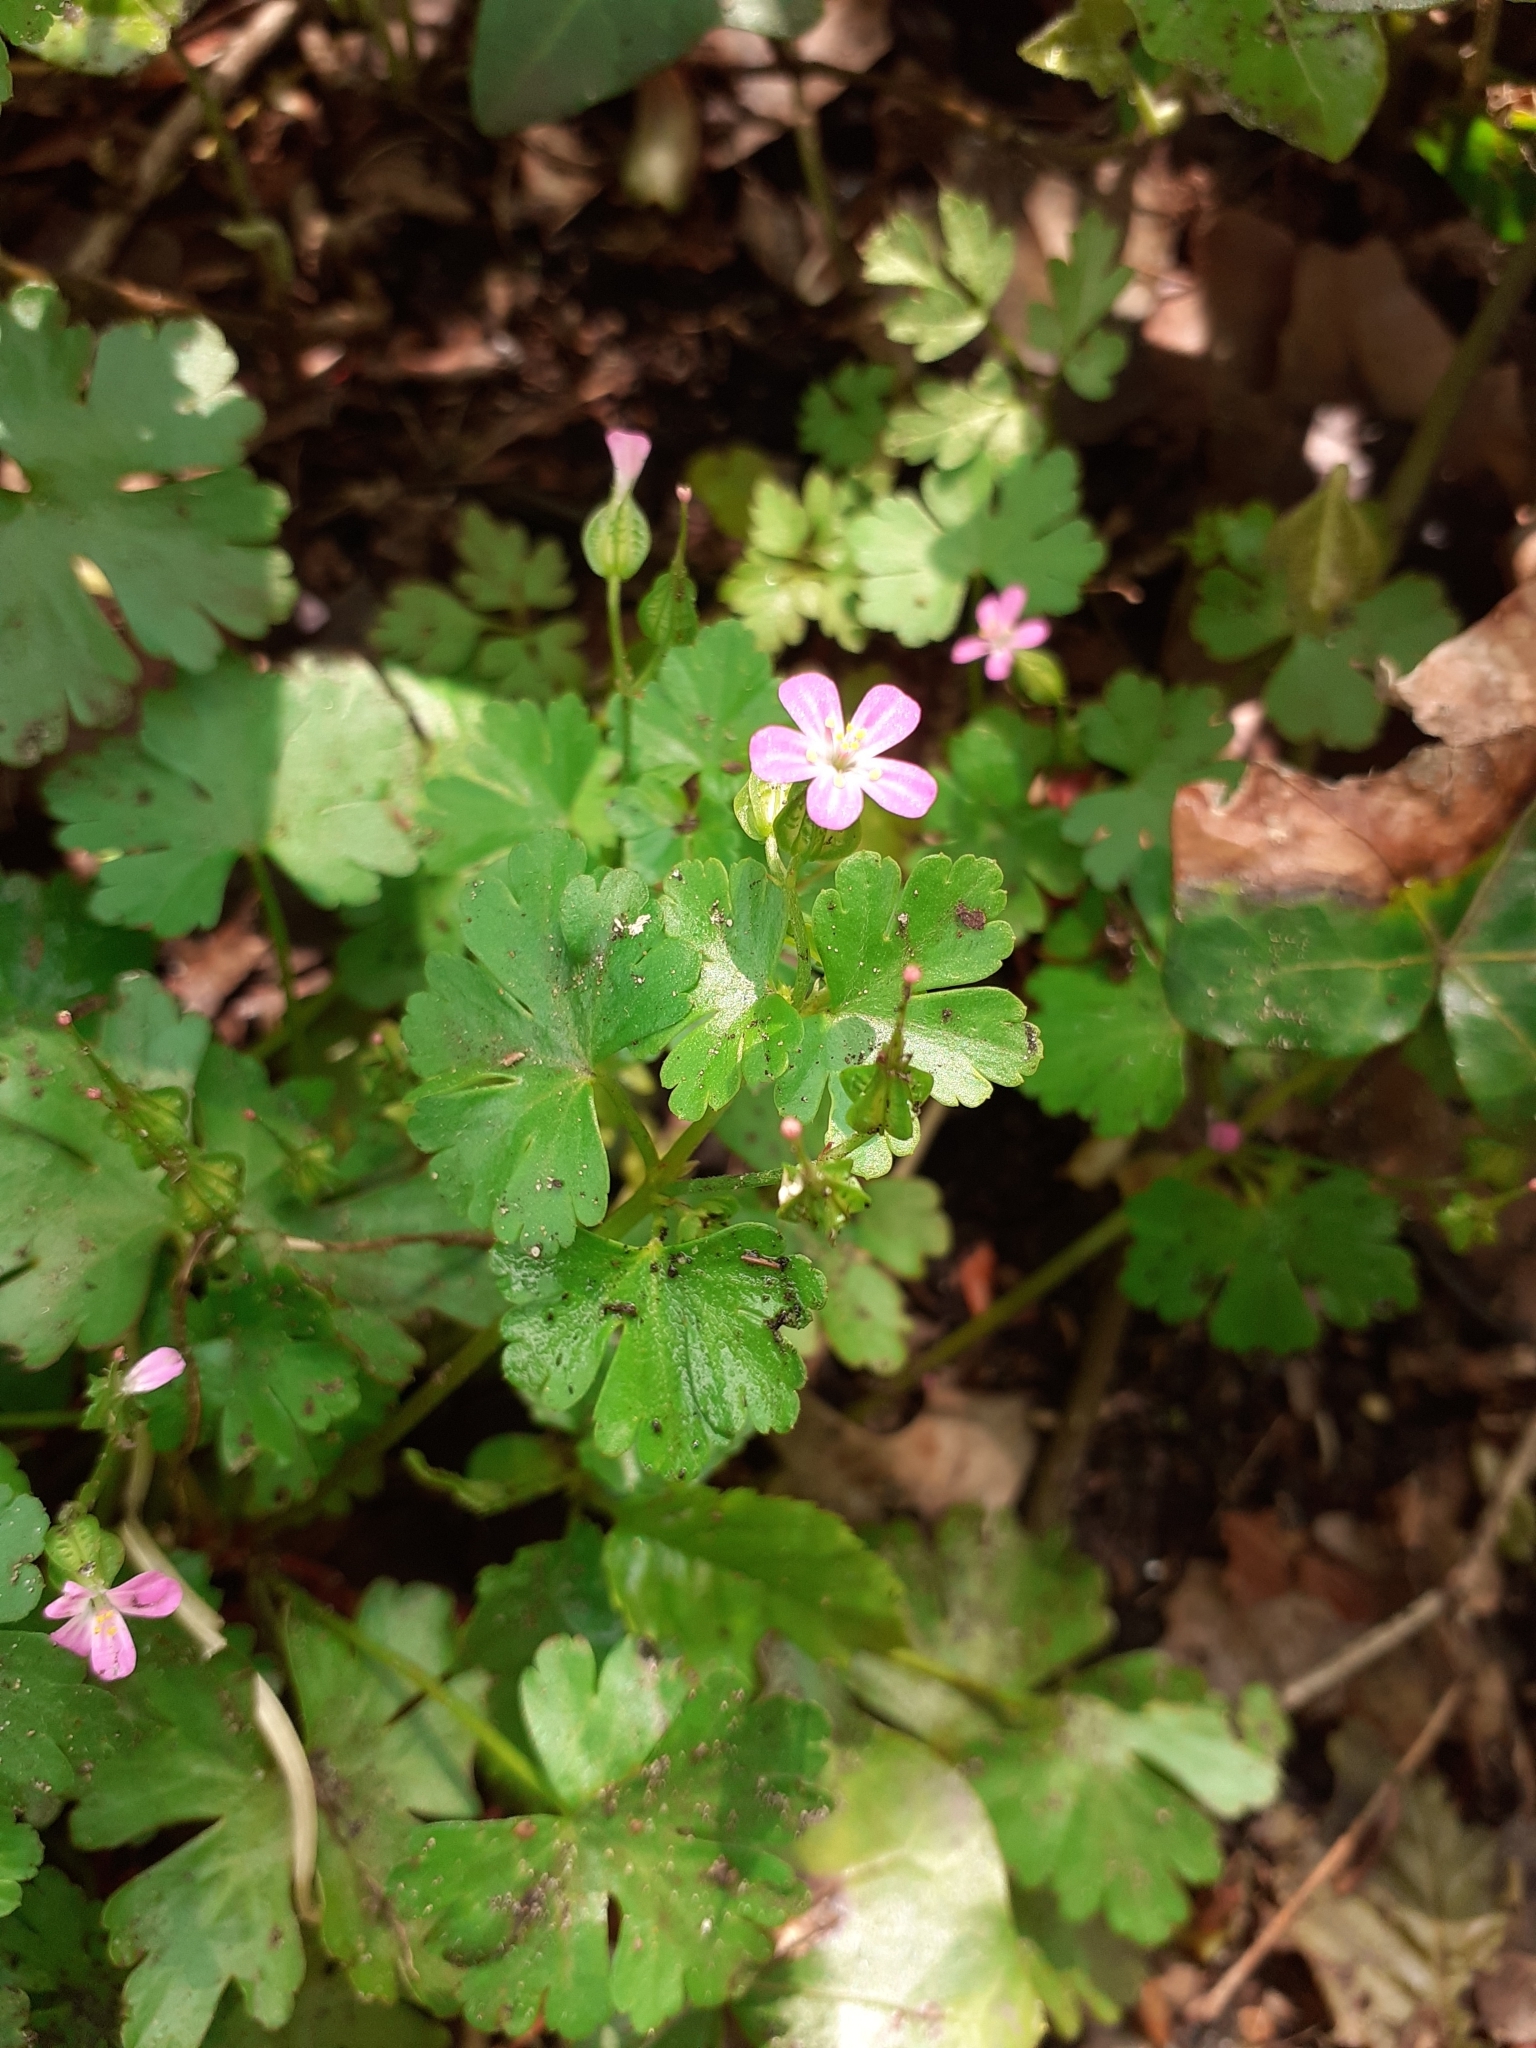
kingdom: Plantae
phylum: Tracheophyta
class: Magnoliopsida
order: Geraniales
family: Geraniaceae
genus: Geranium
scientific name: Geranium lucidum
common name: Shining crane's-bill
